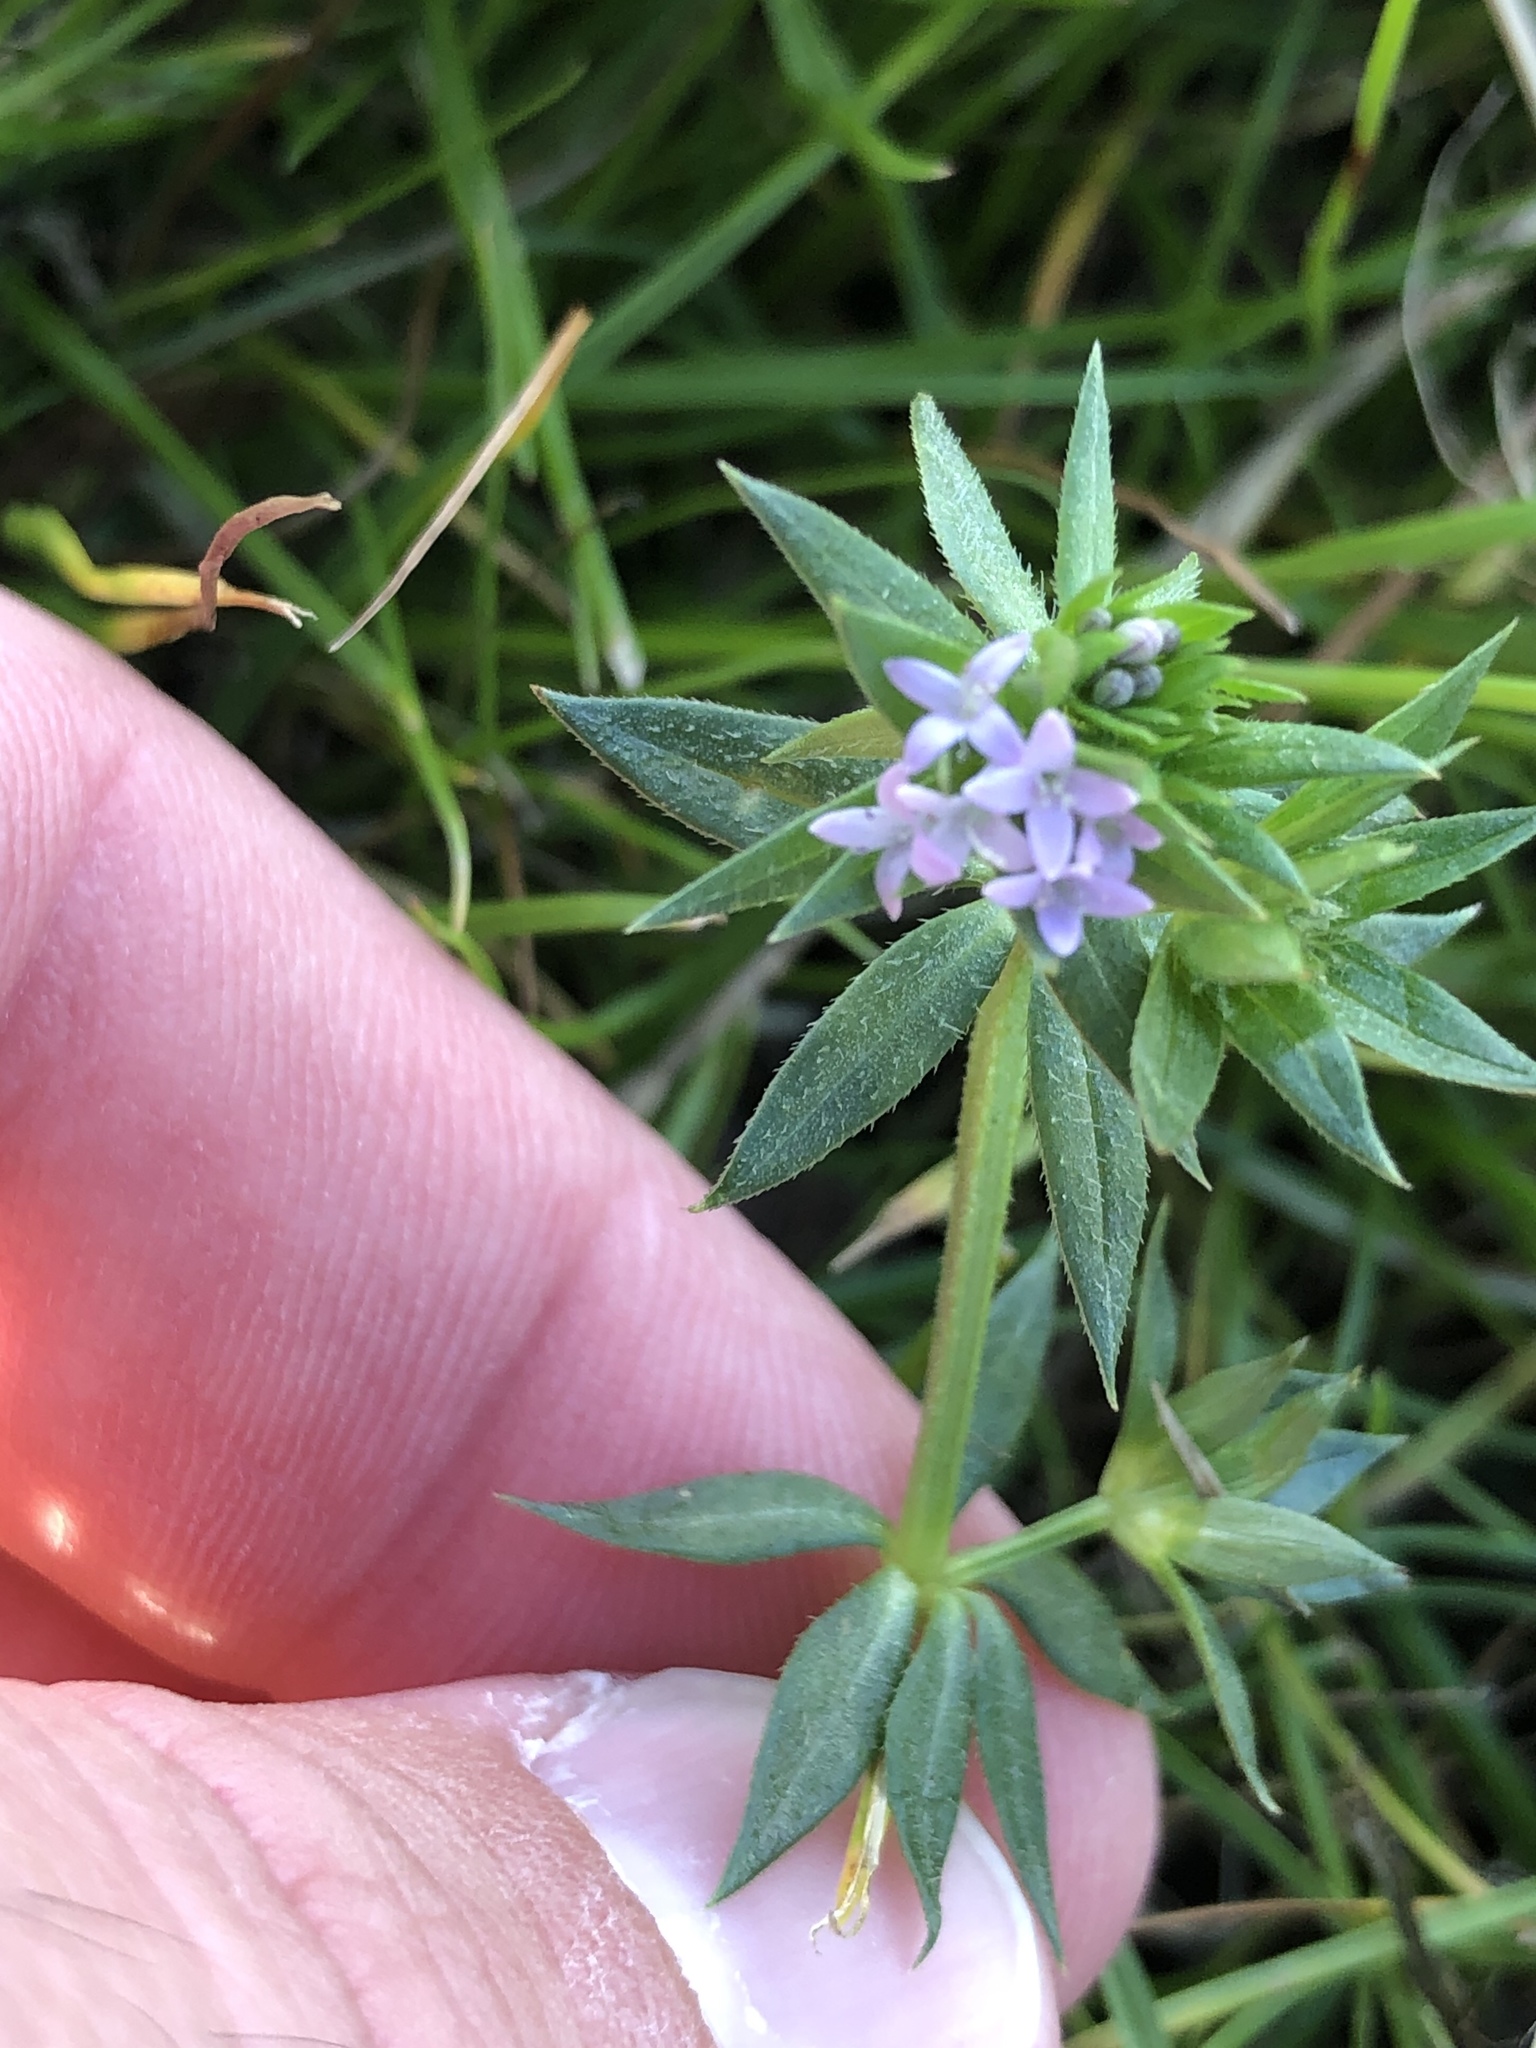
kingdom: Plantae
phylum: Tracheophyta
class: Magnoliopsida
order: Gentianales
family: Rubiaceae
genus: Sherardia
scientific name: Sherardia arvensis
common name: Field madder
